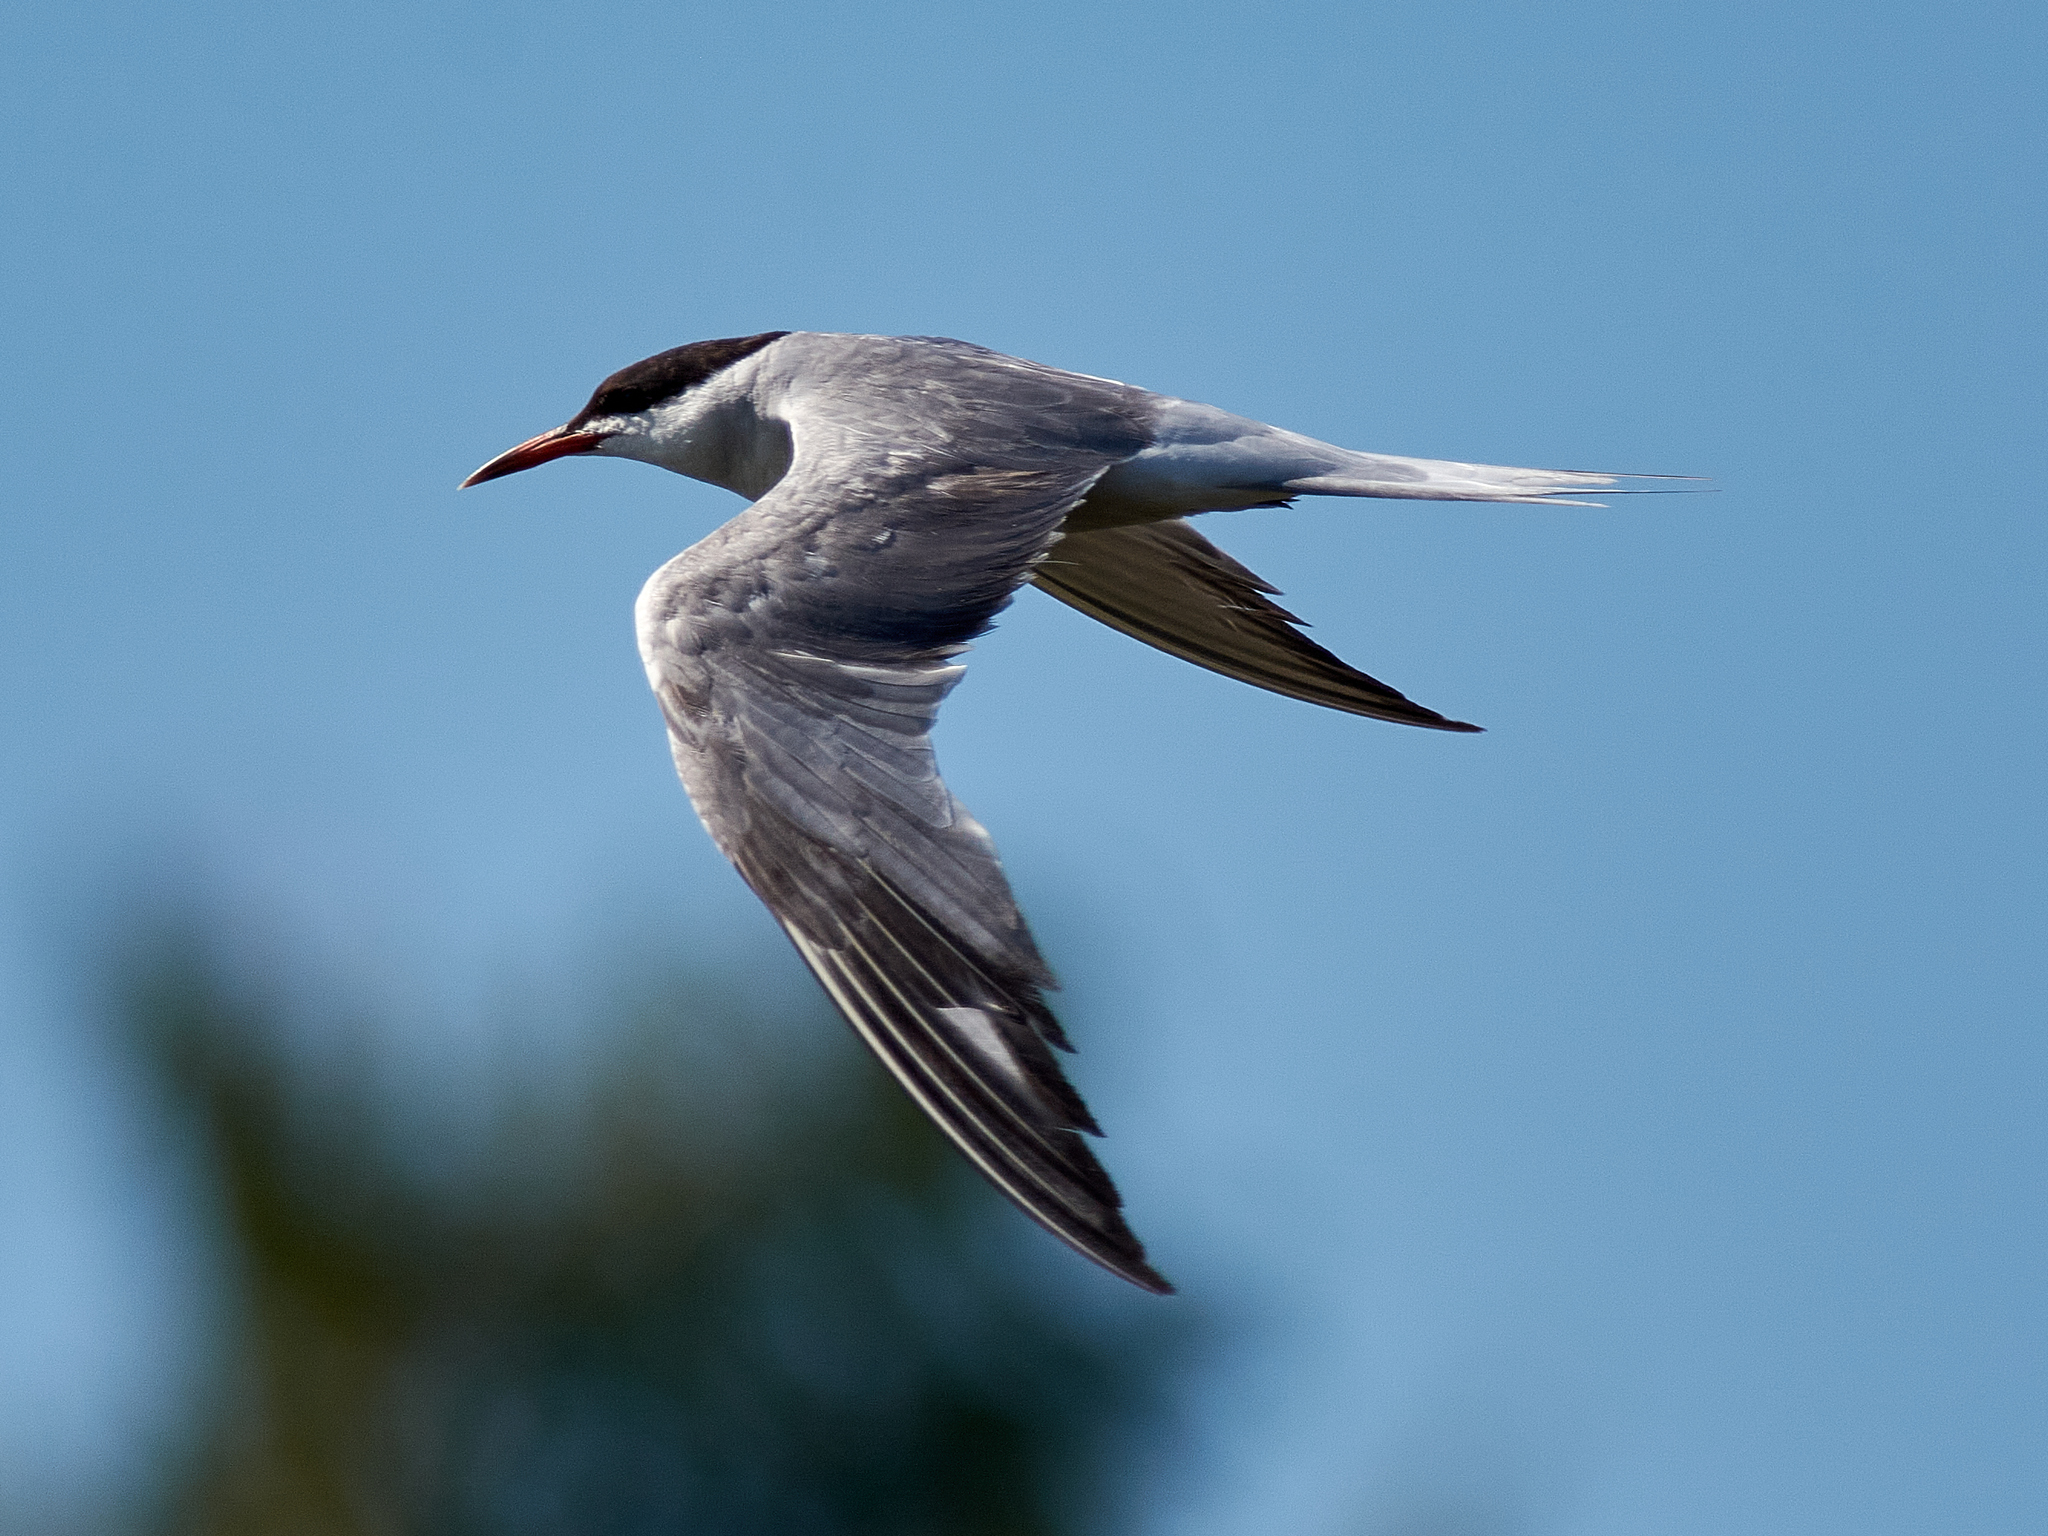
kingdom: Animalia
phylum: Chordata
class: Aves
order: Charadriiformes
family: Laridae
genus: Sterna
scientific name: Sterna hirundo
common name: Common tern
